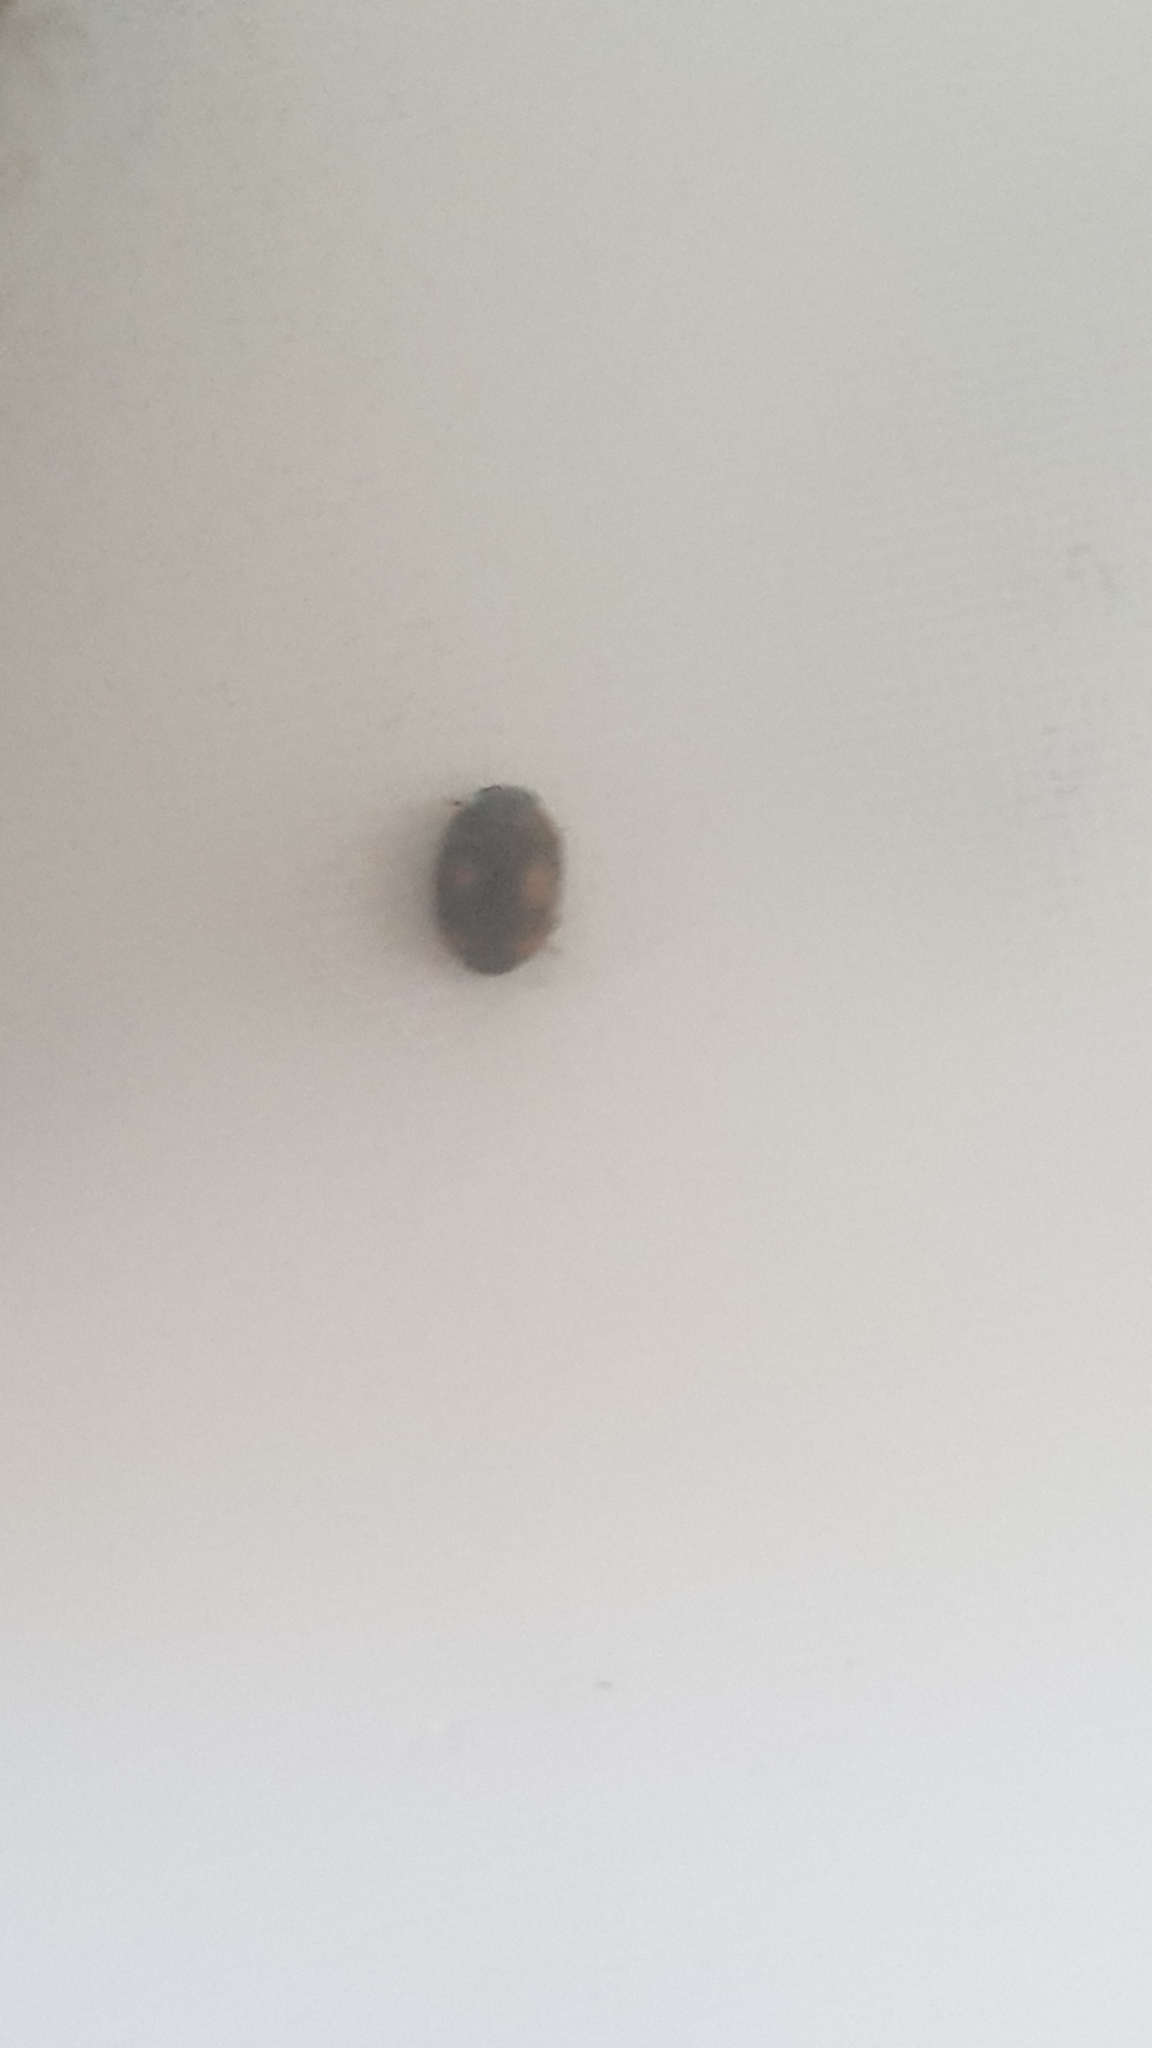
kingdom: Animalia
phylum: Arthropoda
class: Insecta
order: Coleoptera
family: Coccinellidae
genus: Platynaspis
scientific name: Platynaspis luteorubra
